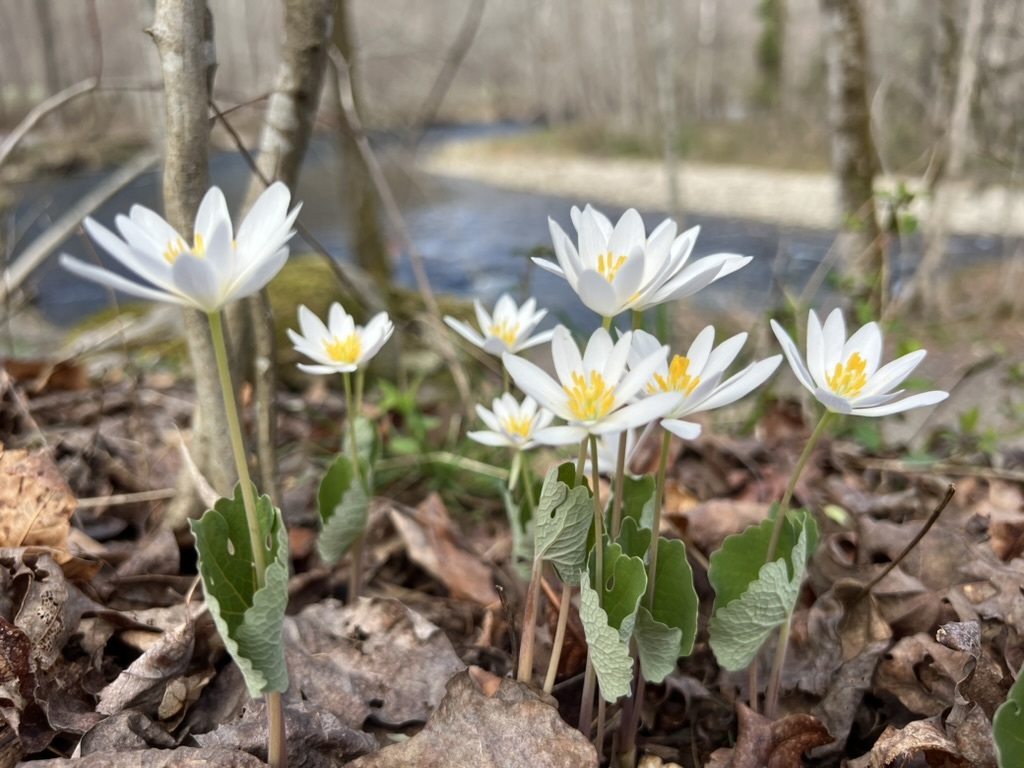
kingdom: Plantae
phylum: Tracheophyta
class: Magnoliopsida
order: Ranunculales
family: Papaveraceae
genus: Sanguinaria
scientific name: Sanguinaria canadensis
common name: Bloodroot
